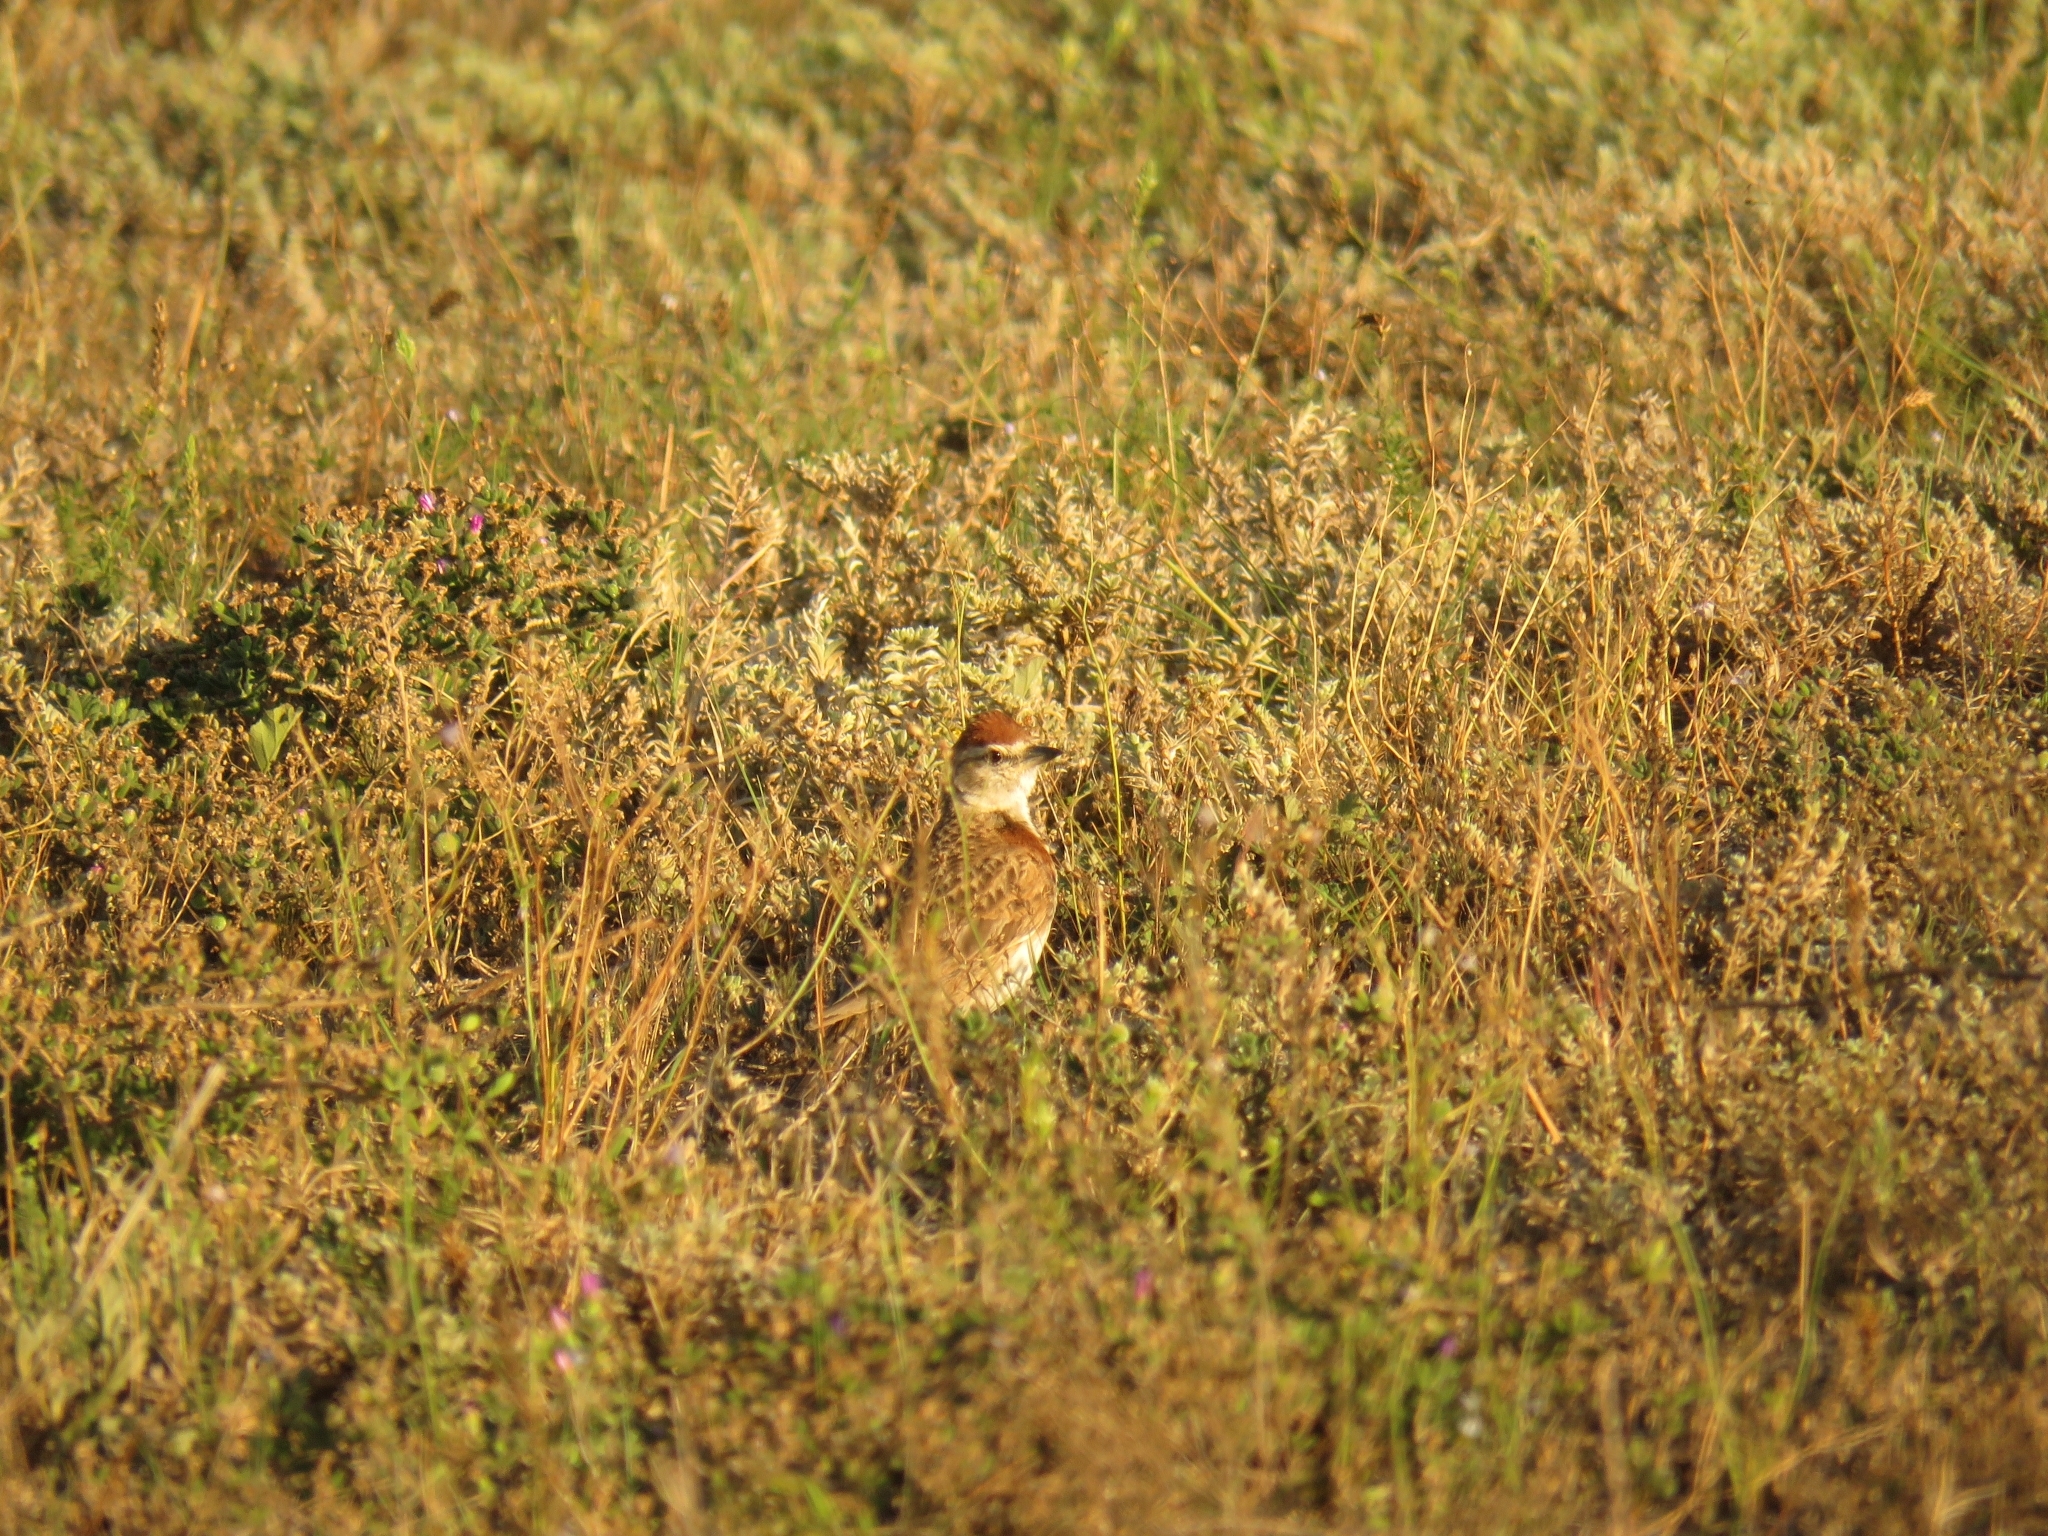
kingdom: Animalia
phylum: Chordata
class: Aves
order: Passeriformes
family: Alaudidae
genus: Calandrella
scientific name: Calandrella cinerea
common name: Red-capped lark
